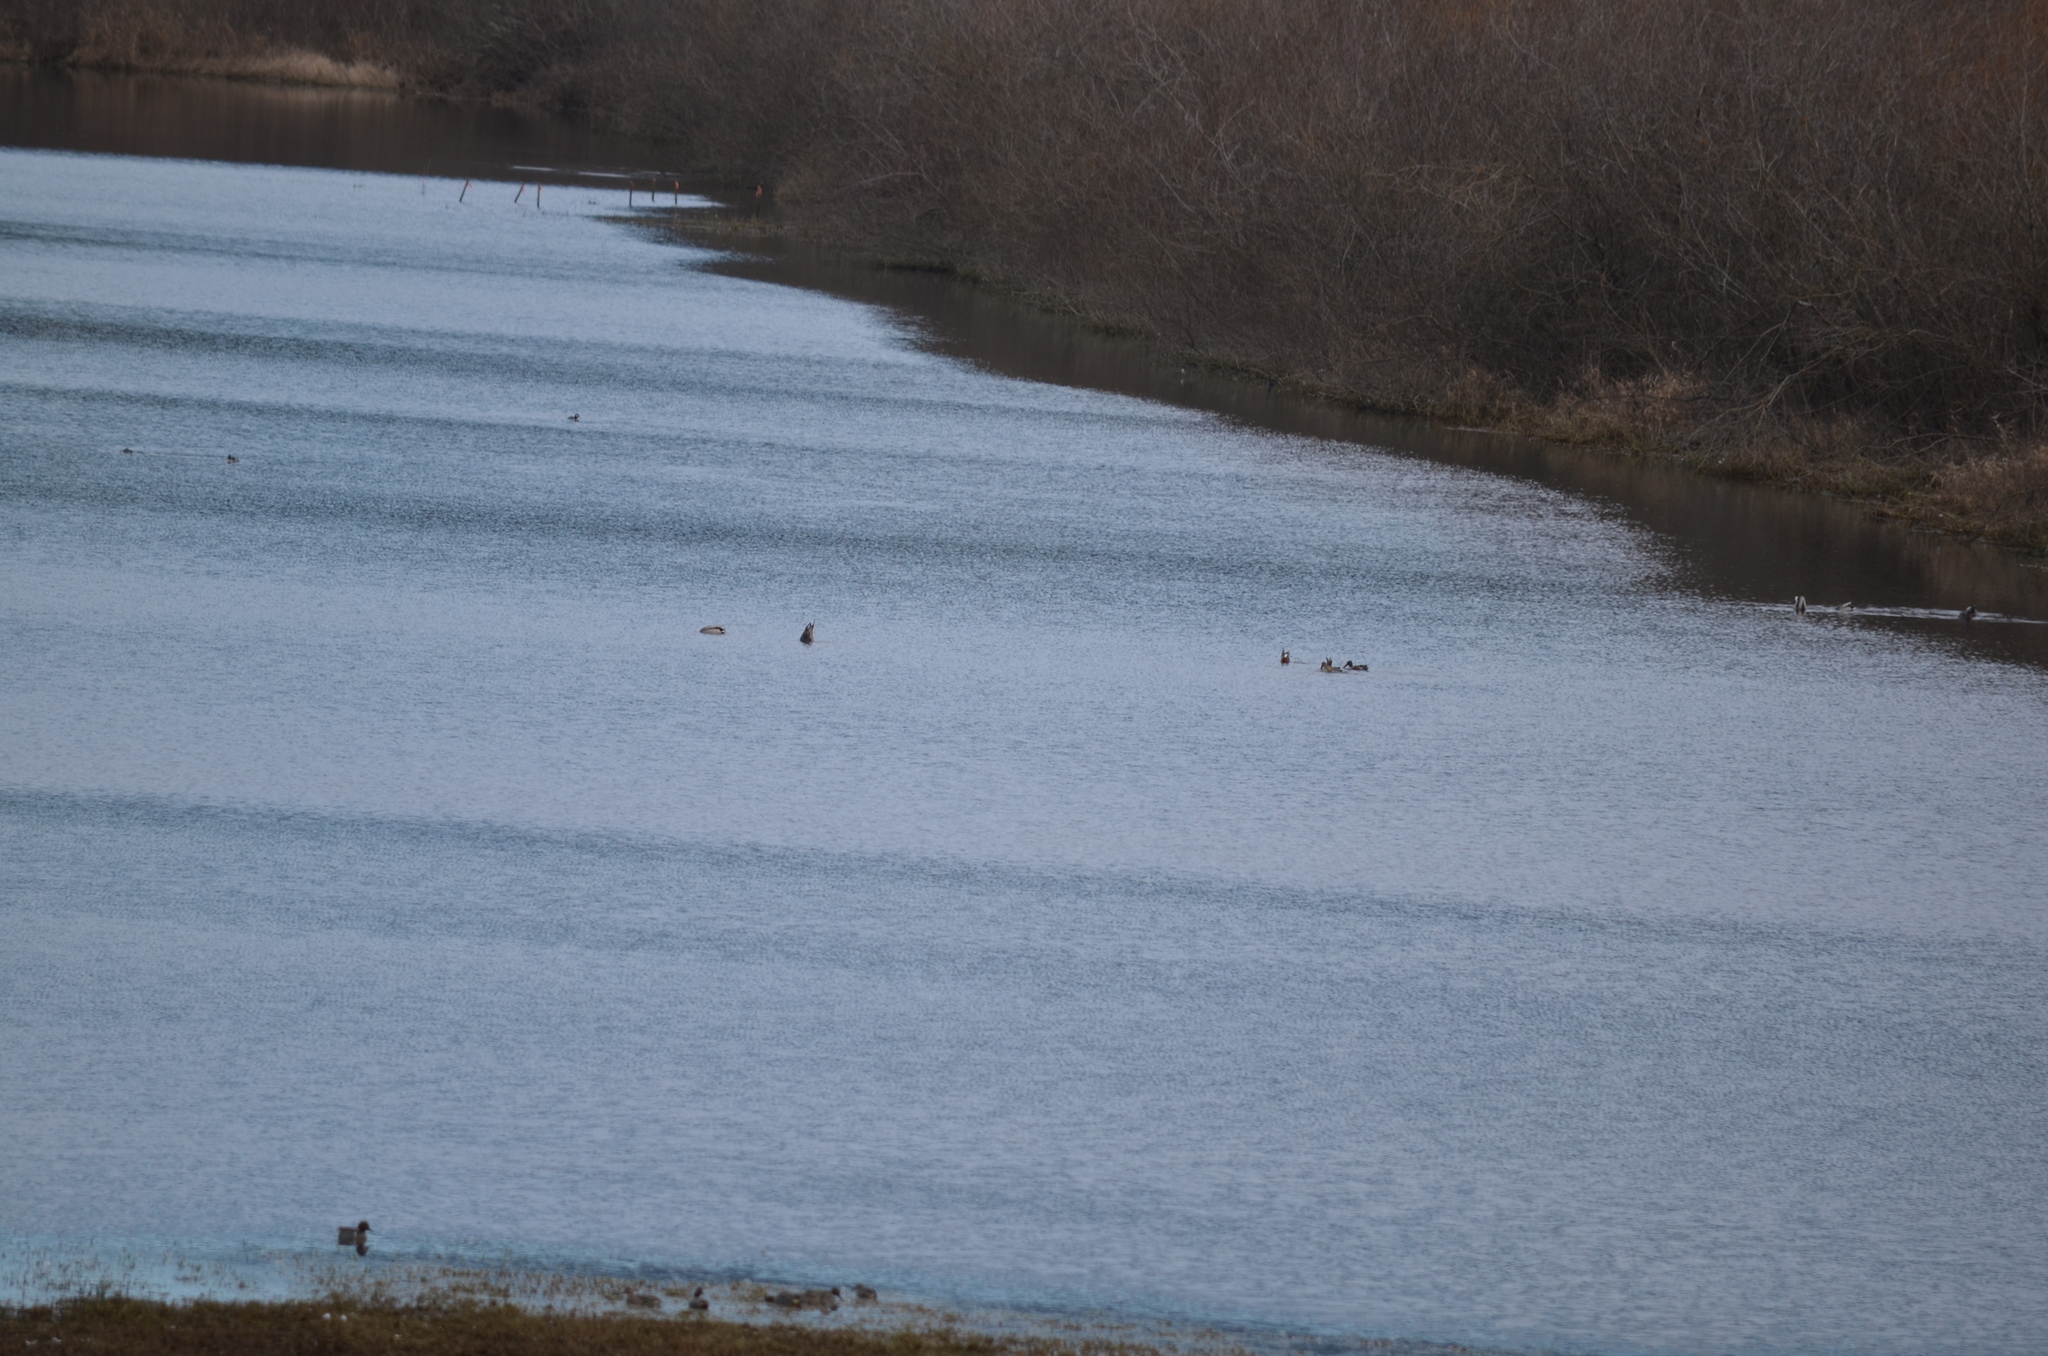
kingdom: Animalia
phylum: Chordata
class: Aves
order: Anseriformes
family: Anatidae
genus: Anas
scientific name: Anas crecca
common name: Eurasian teal
